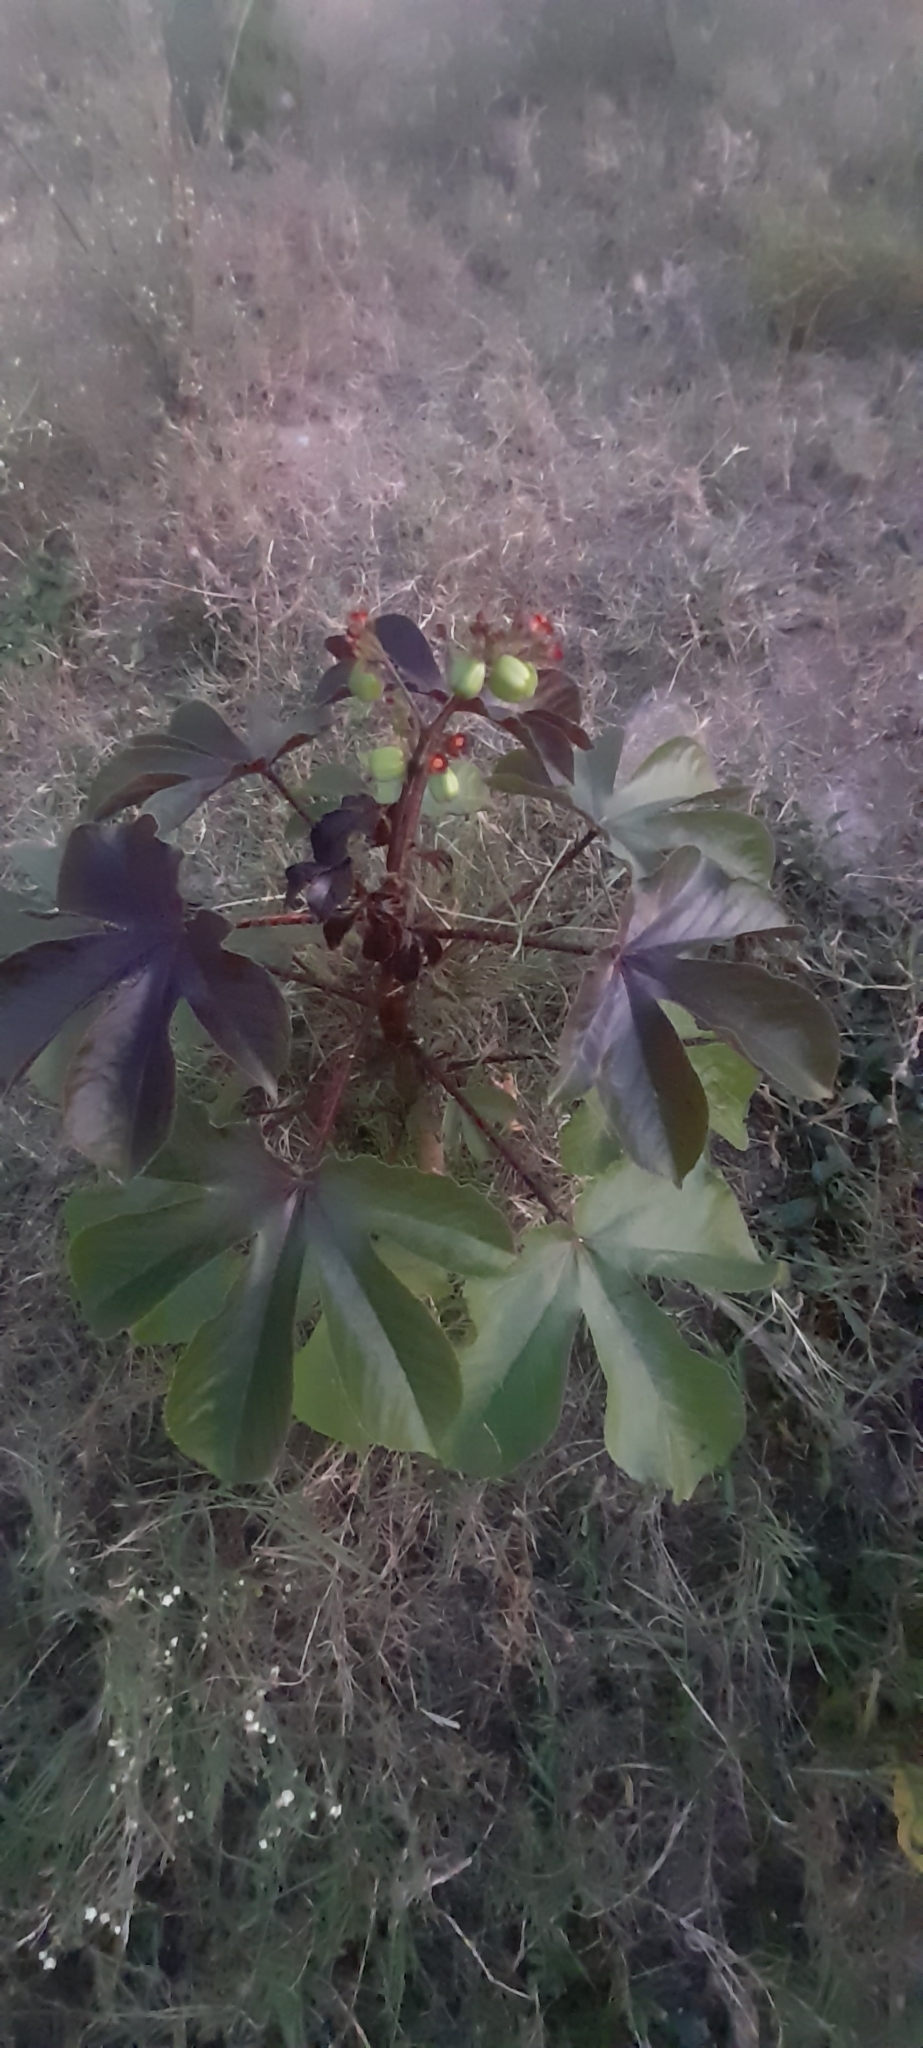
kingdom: Plantae
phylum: Tracheophyta
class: Magnoliopsida
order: Malpighiales
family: Euphorbiaceae
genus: Jatropha
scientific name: Jatropha gossypiifolia
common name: Bellyache bush
